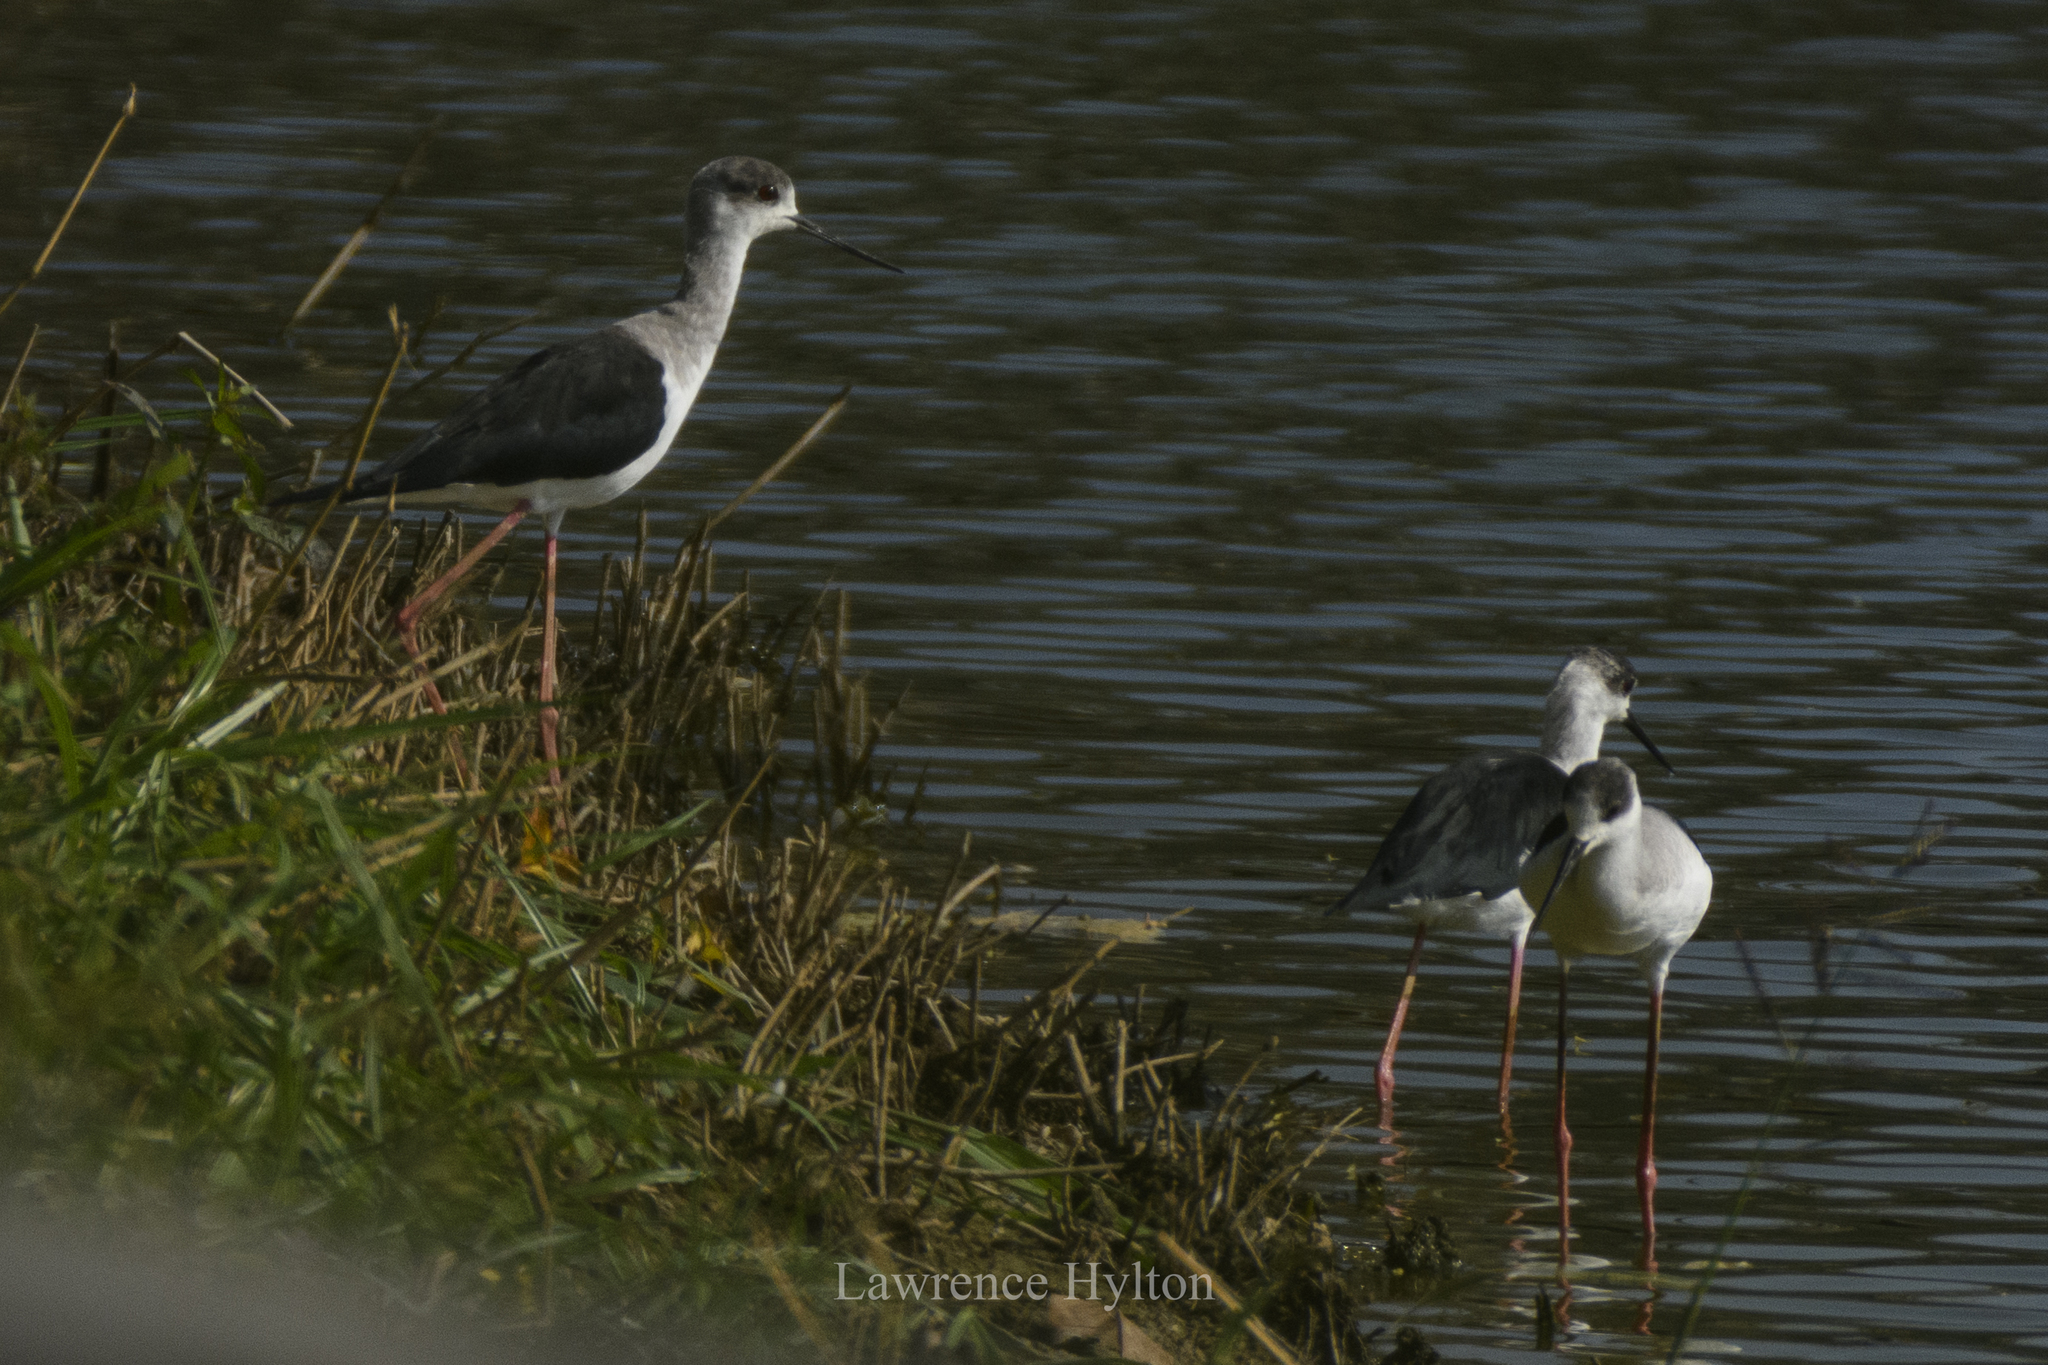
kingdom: Animalia
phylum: Chordata
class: Aves
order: Charadriiformes
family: Recurvirostridae
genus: Himantopus
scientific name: Himantopus himantopus
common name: Black-winged stilt
